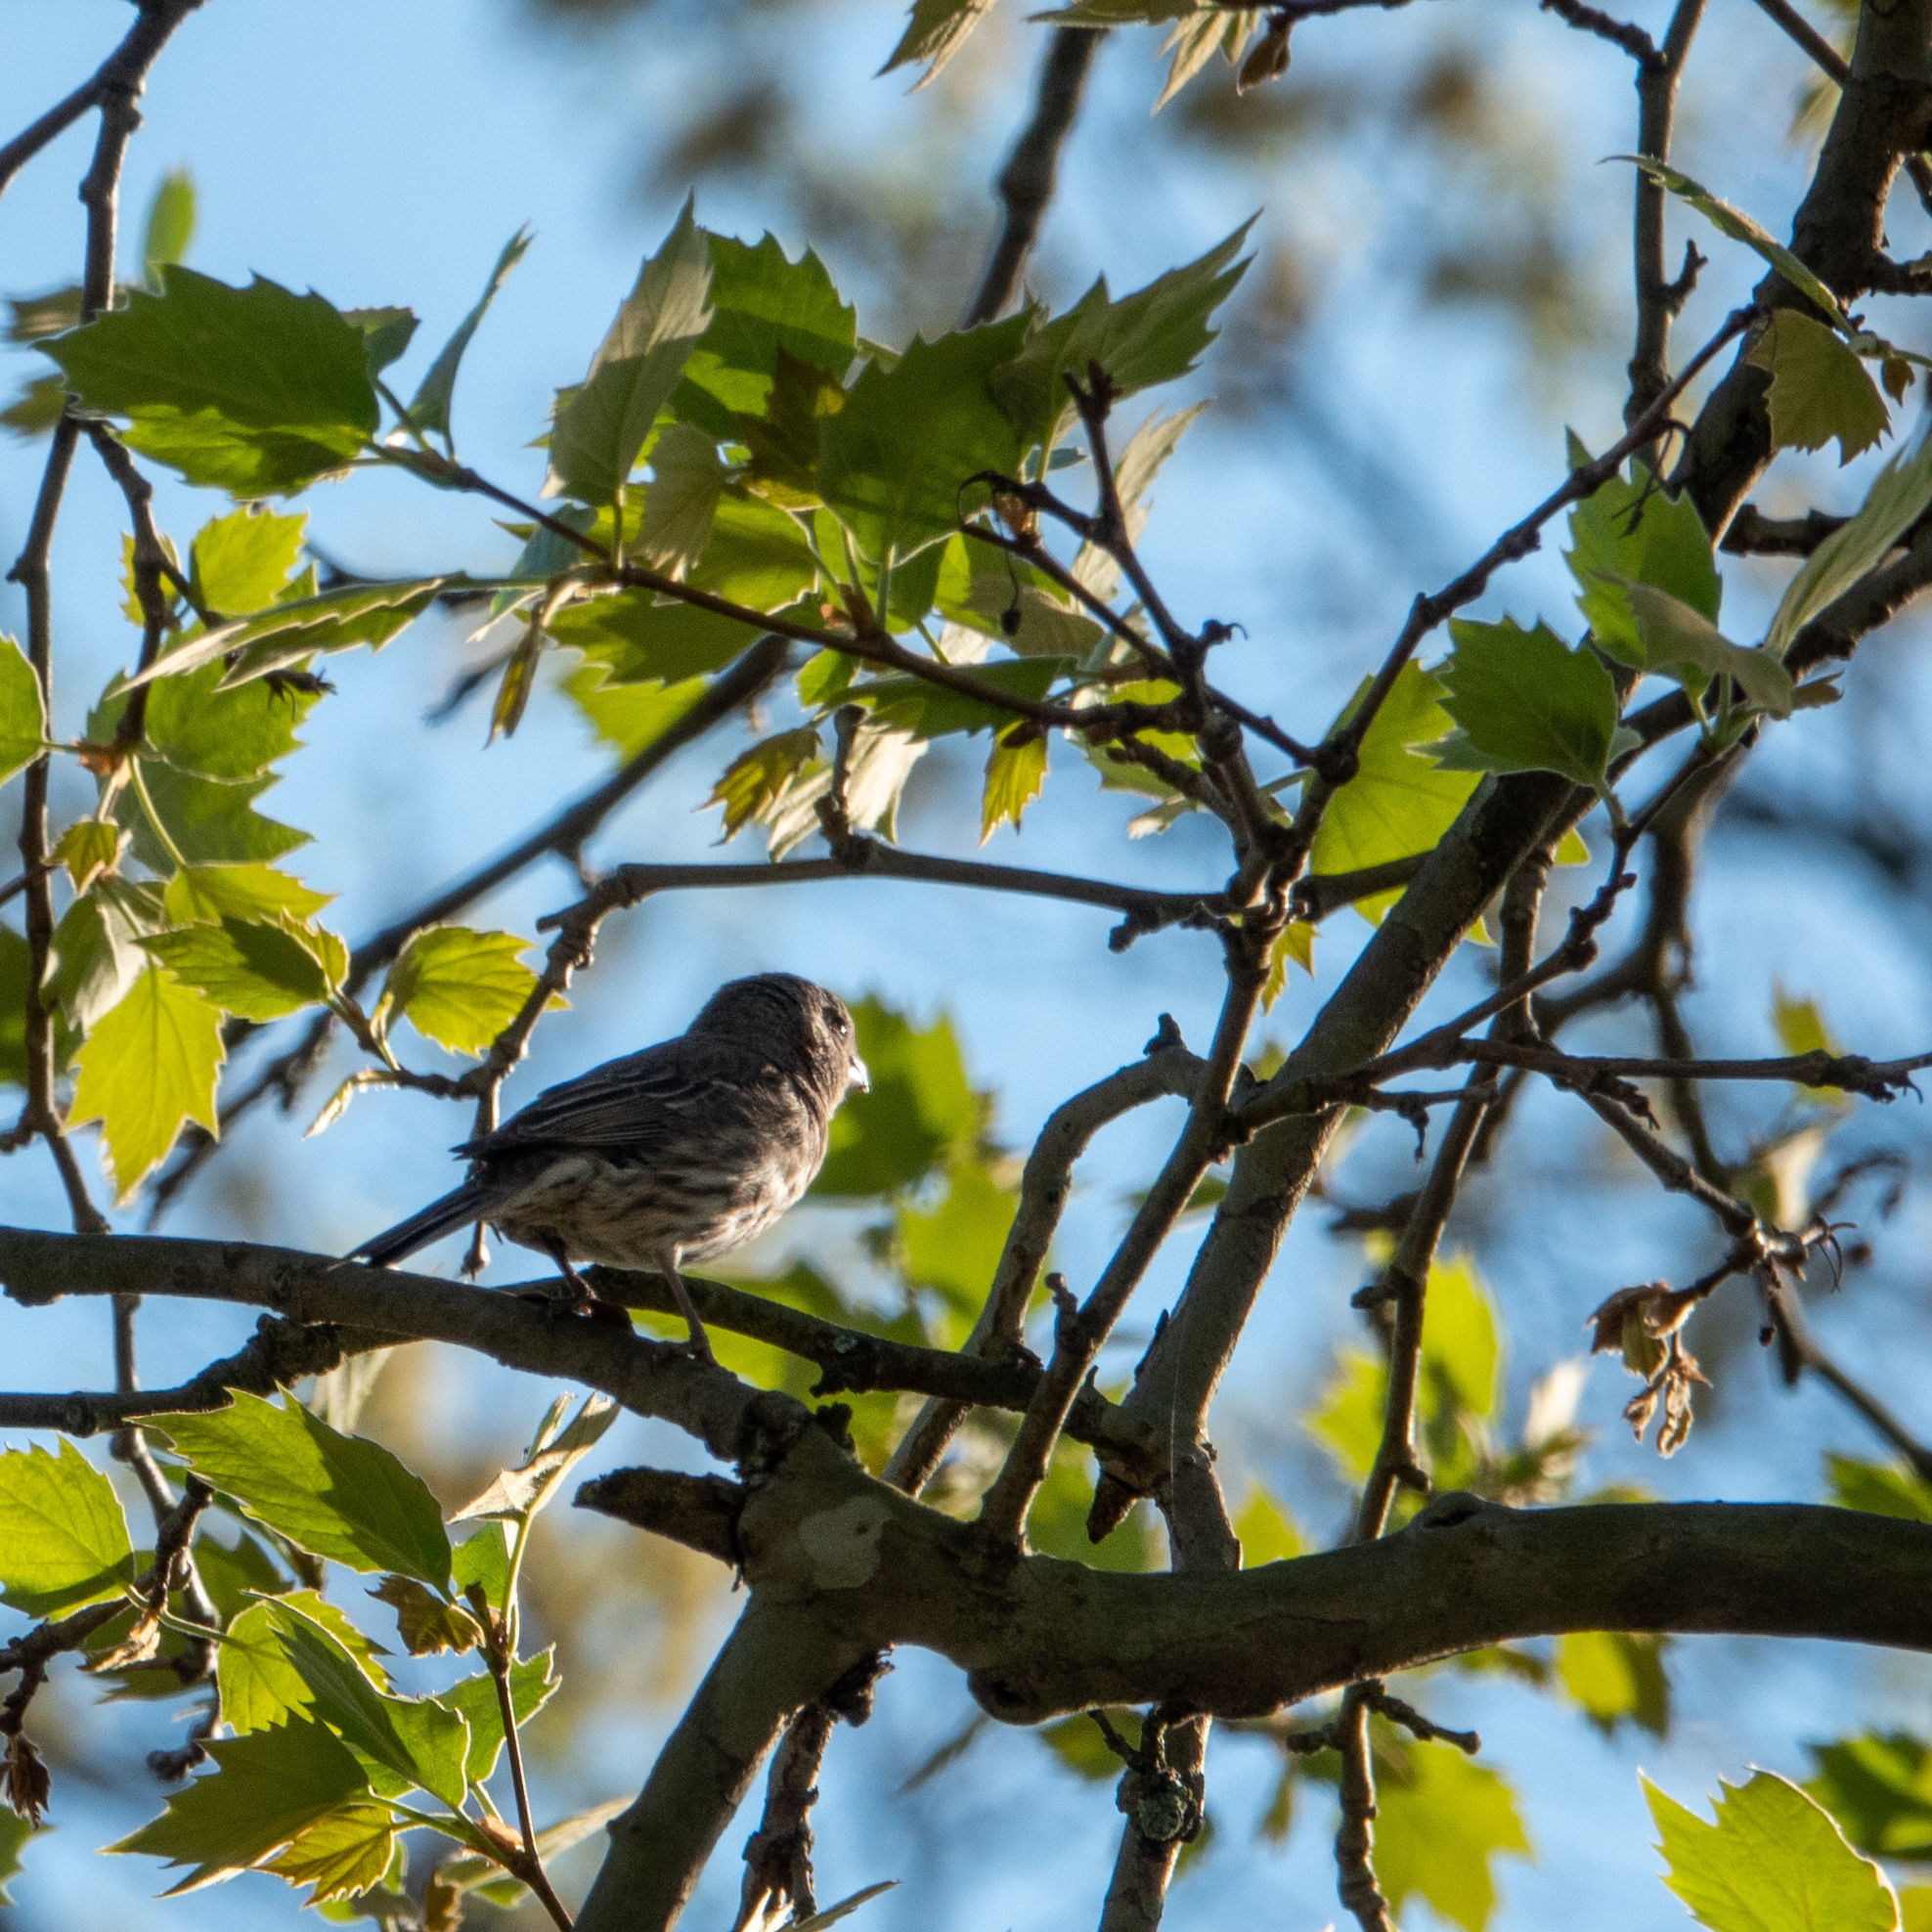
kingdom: Animalia
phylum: Chordata
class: Aves
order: Passeriformes
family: Fringillidae
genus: Haemorhous
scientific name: Haemorhous mexicanus
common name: House finch
